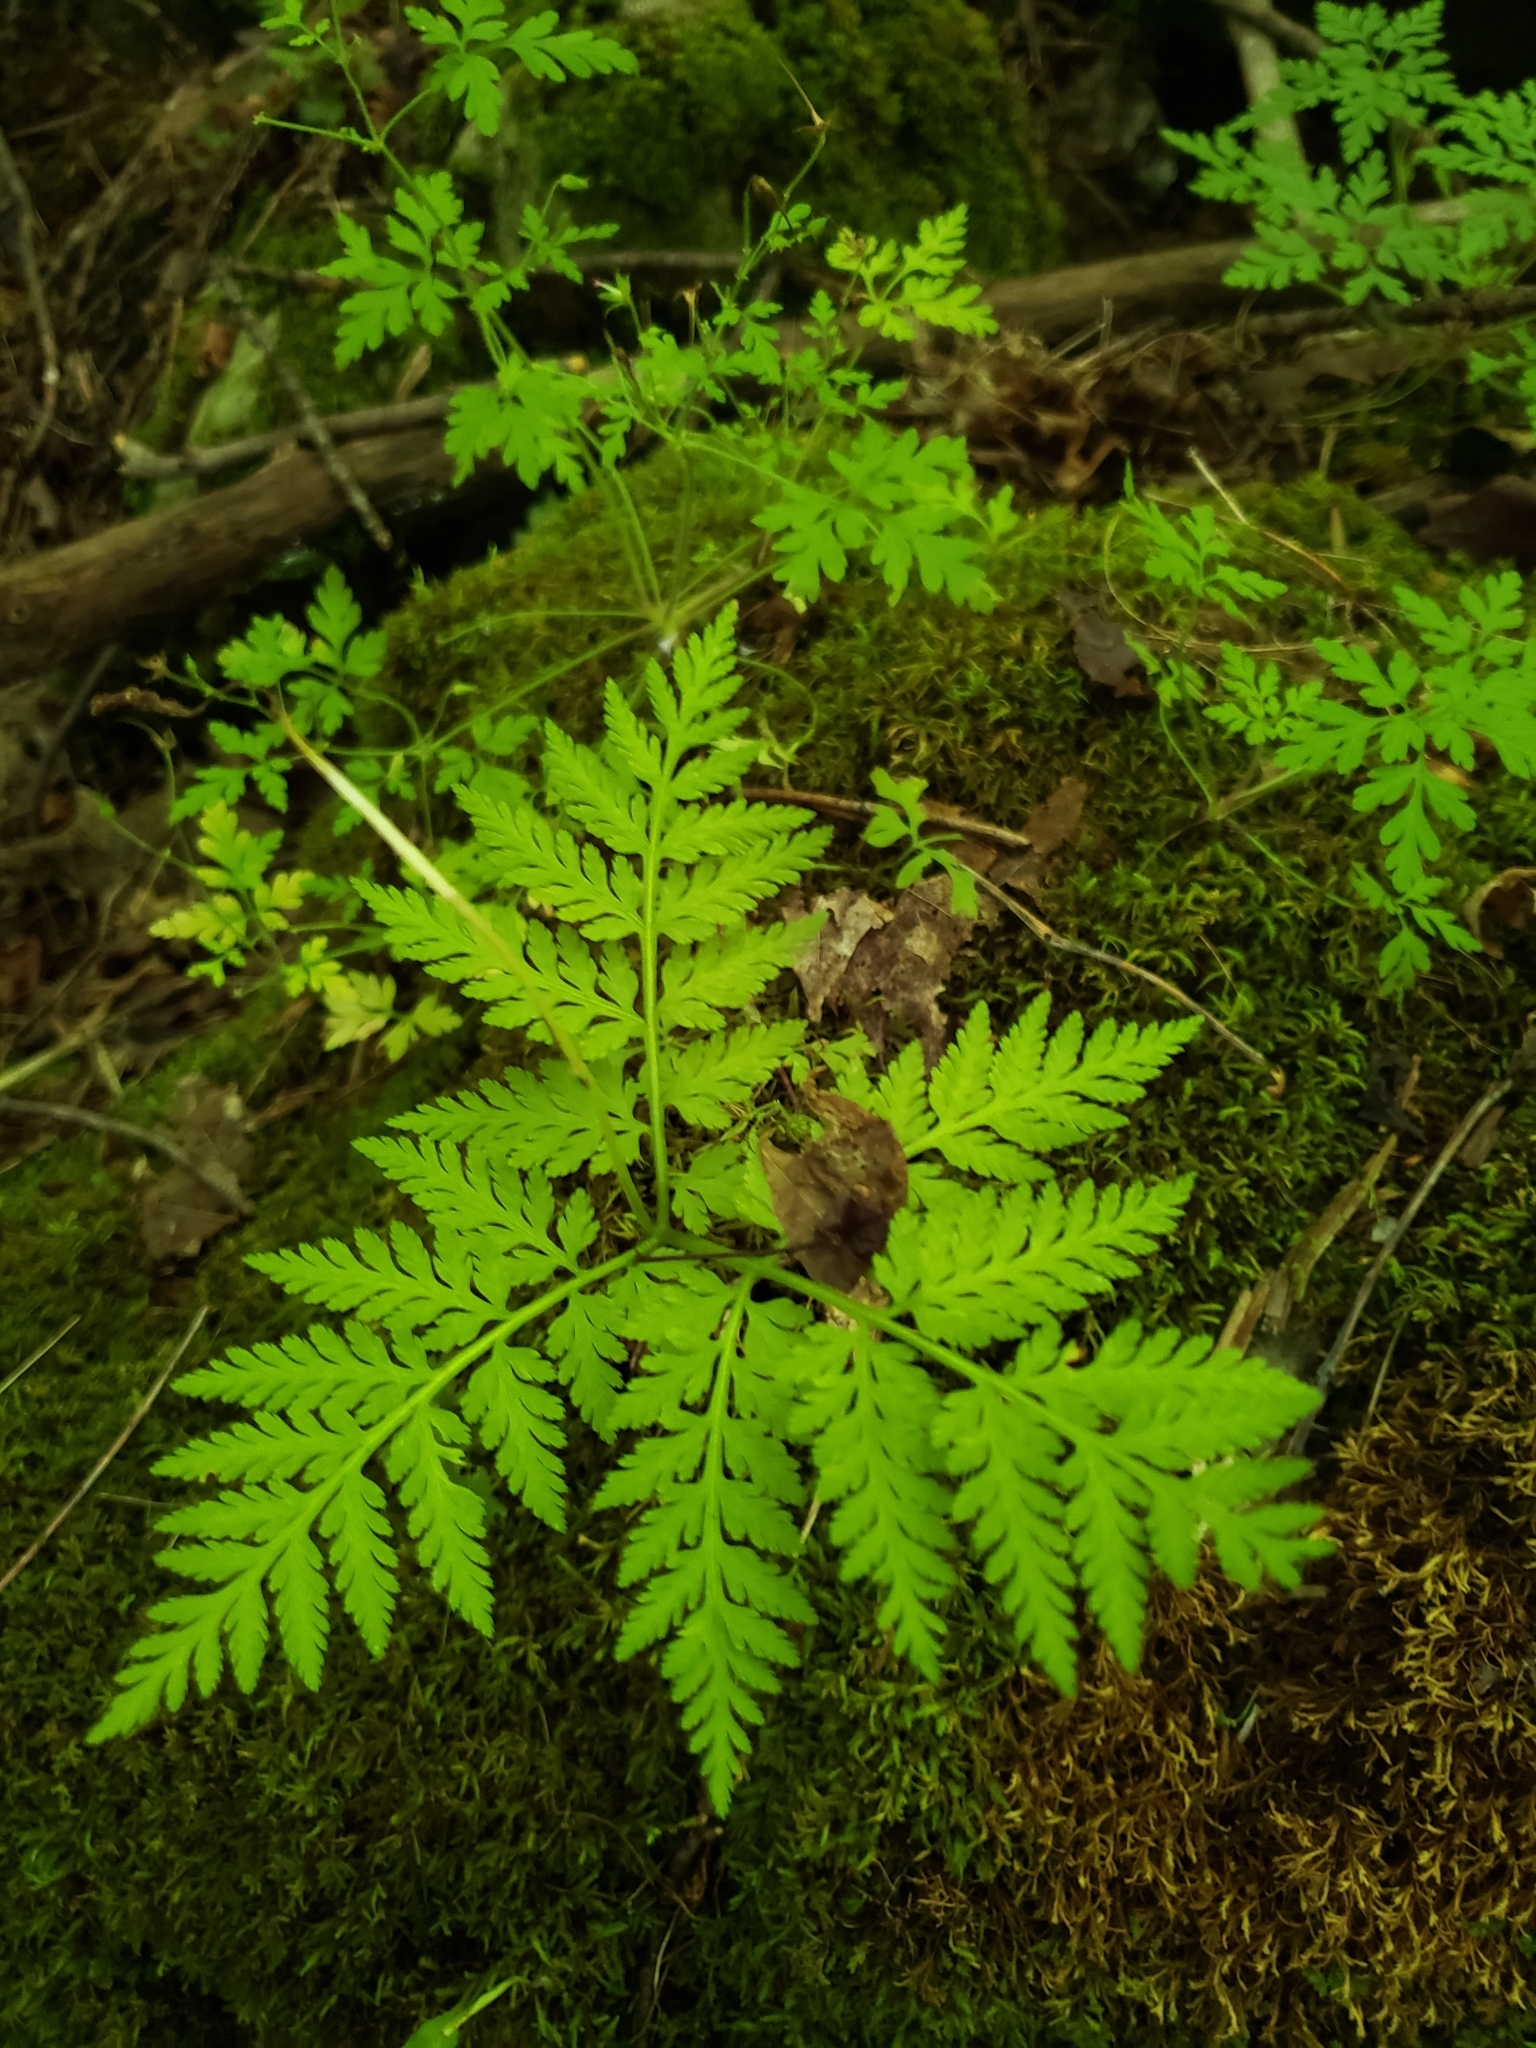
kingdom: Plantae
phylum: Tracheophyta
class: Polypodiopsida
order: Ophioglossales
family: Ophioglossaceae
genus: Botrypus
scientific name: Botrypus virginianus
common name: Common grapefern
